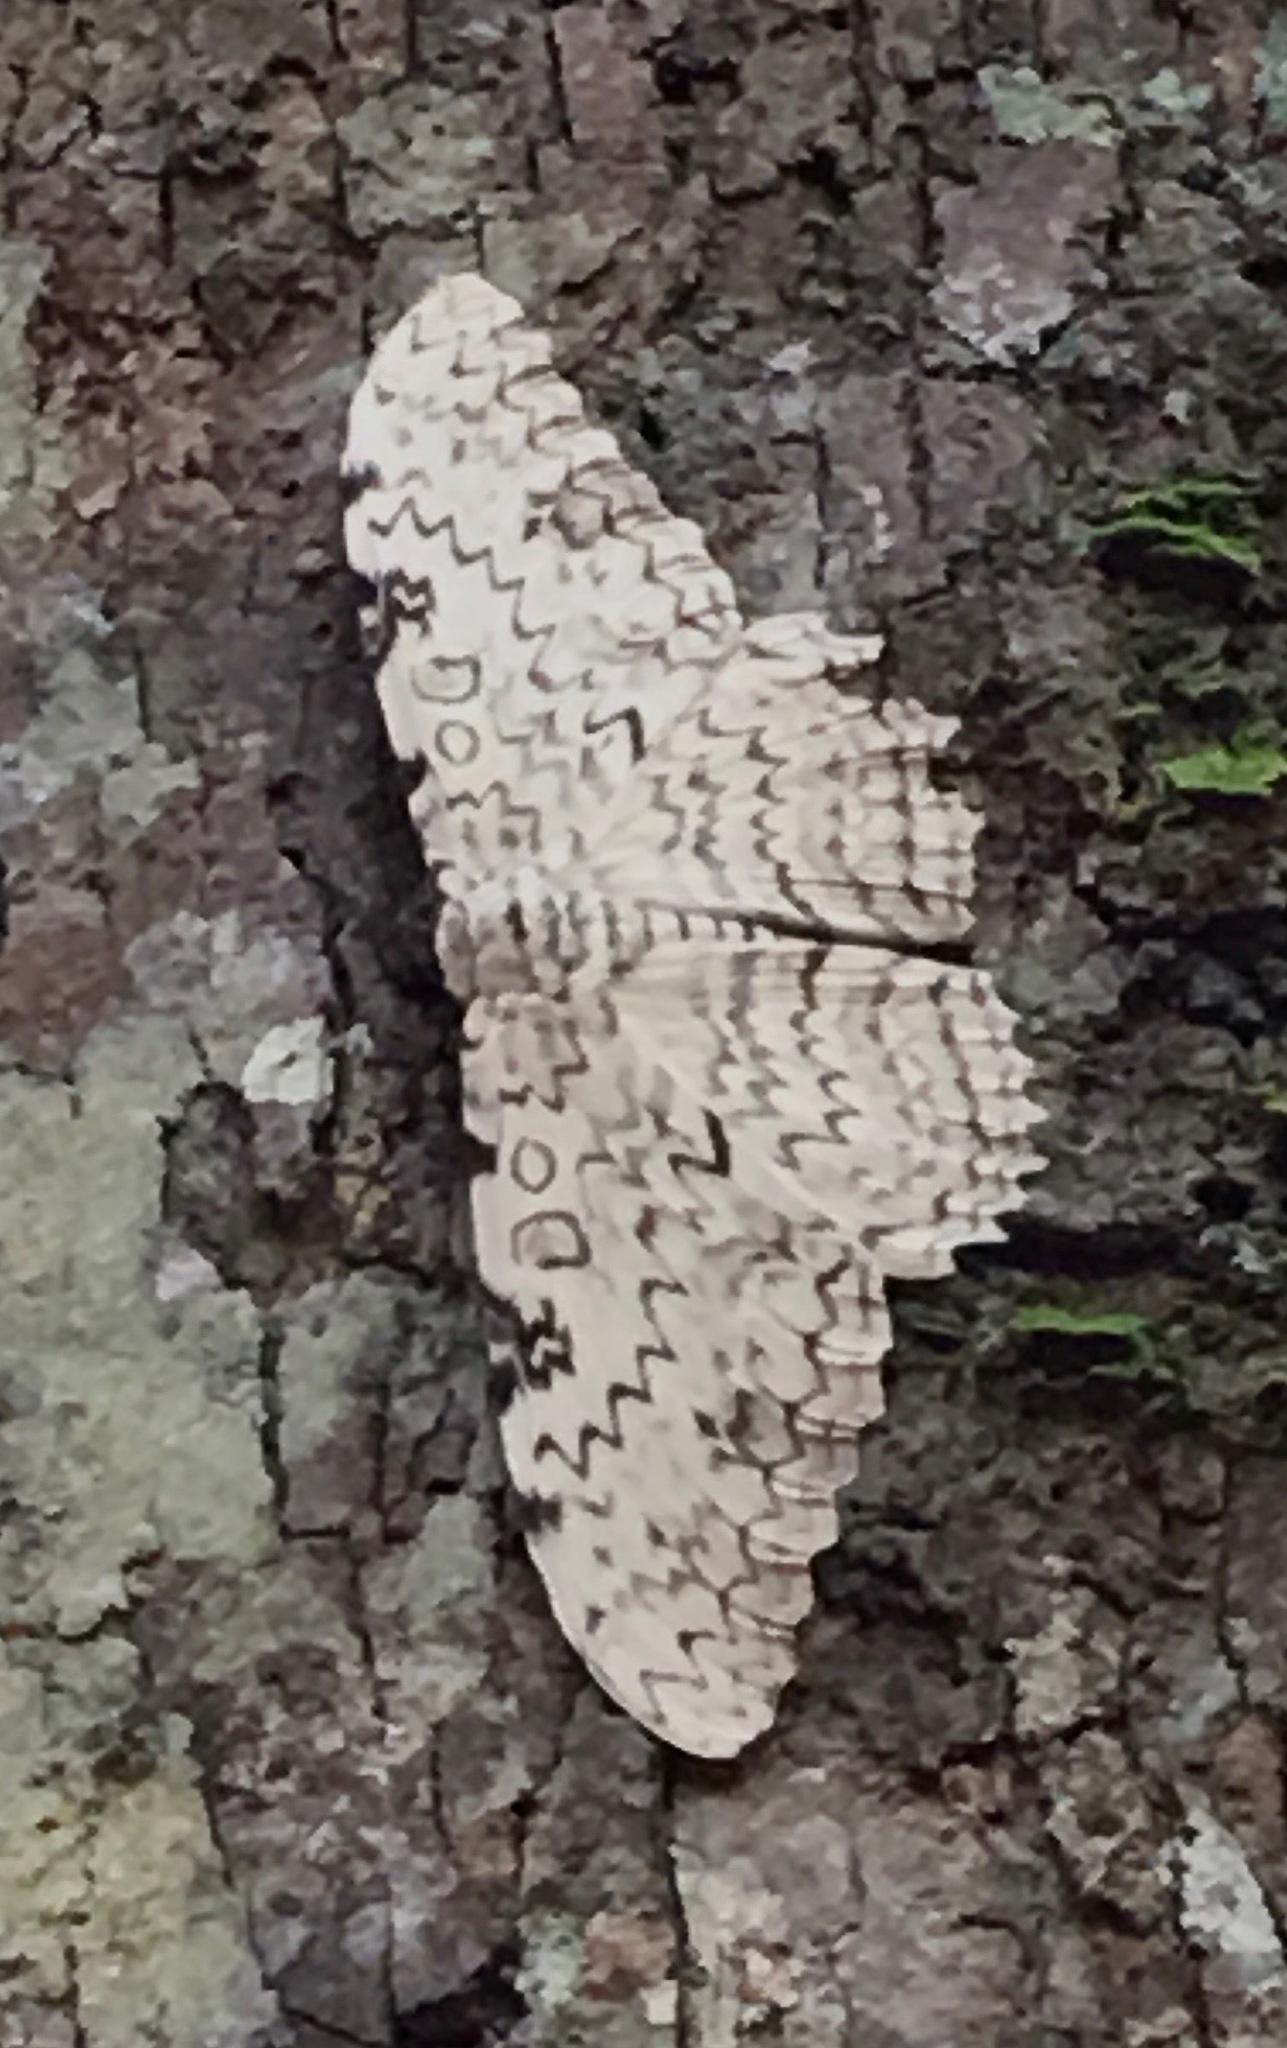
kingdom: Animalia
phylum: Arthropoda
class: Insecta
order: Lepidoptera
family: Erebidae
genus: Thysania
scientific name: Thysania agrippina
